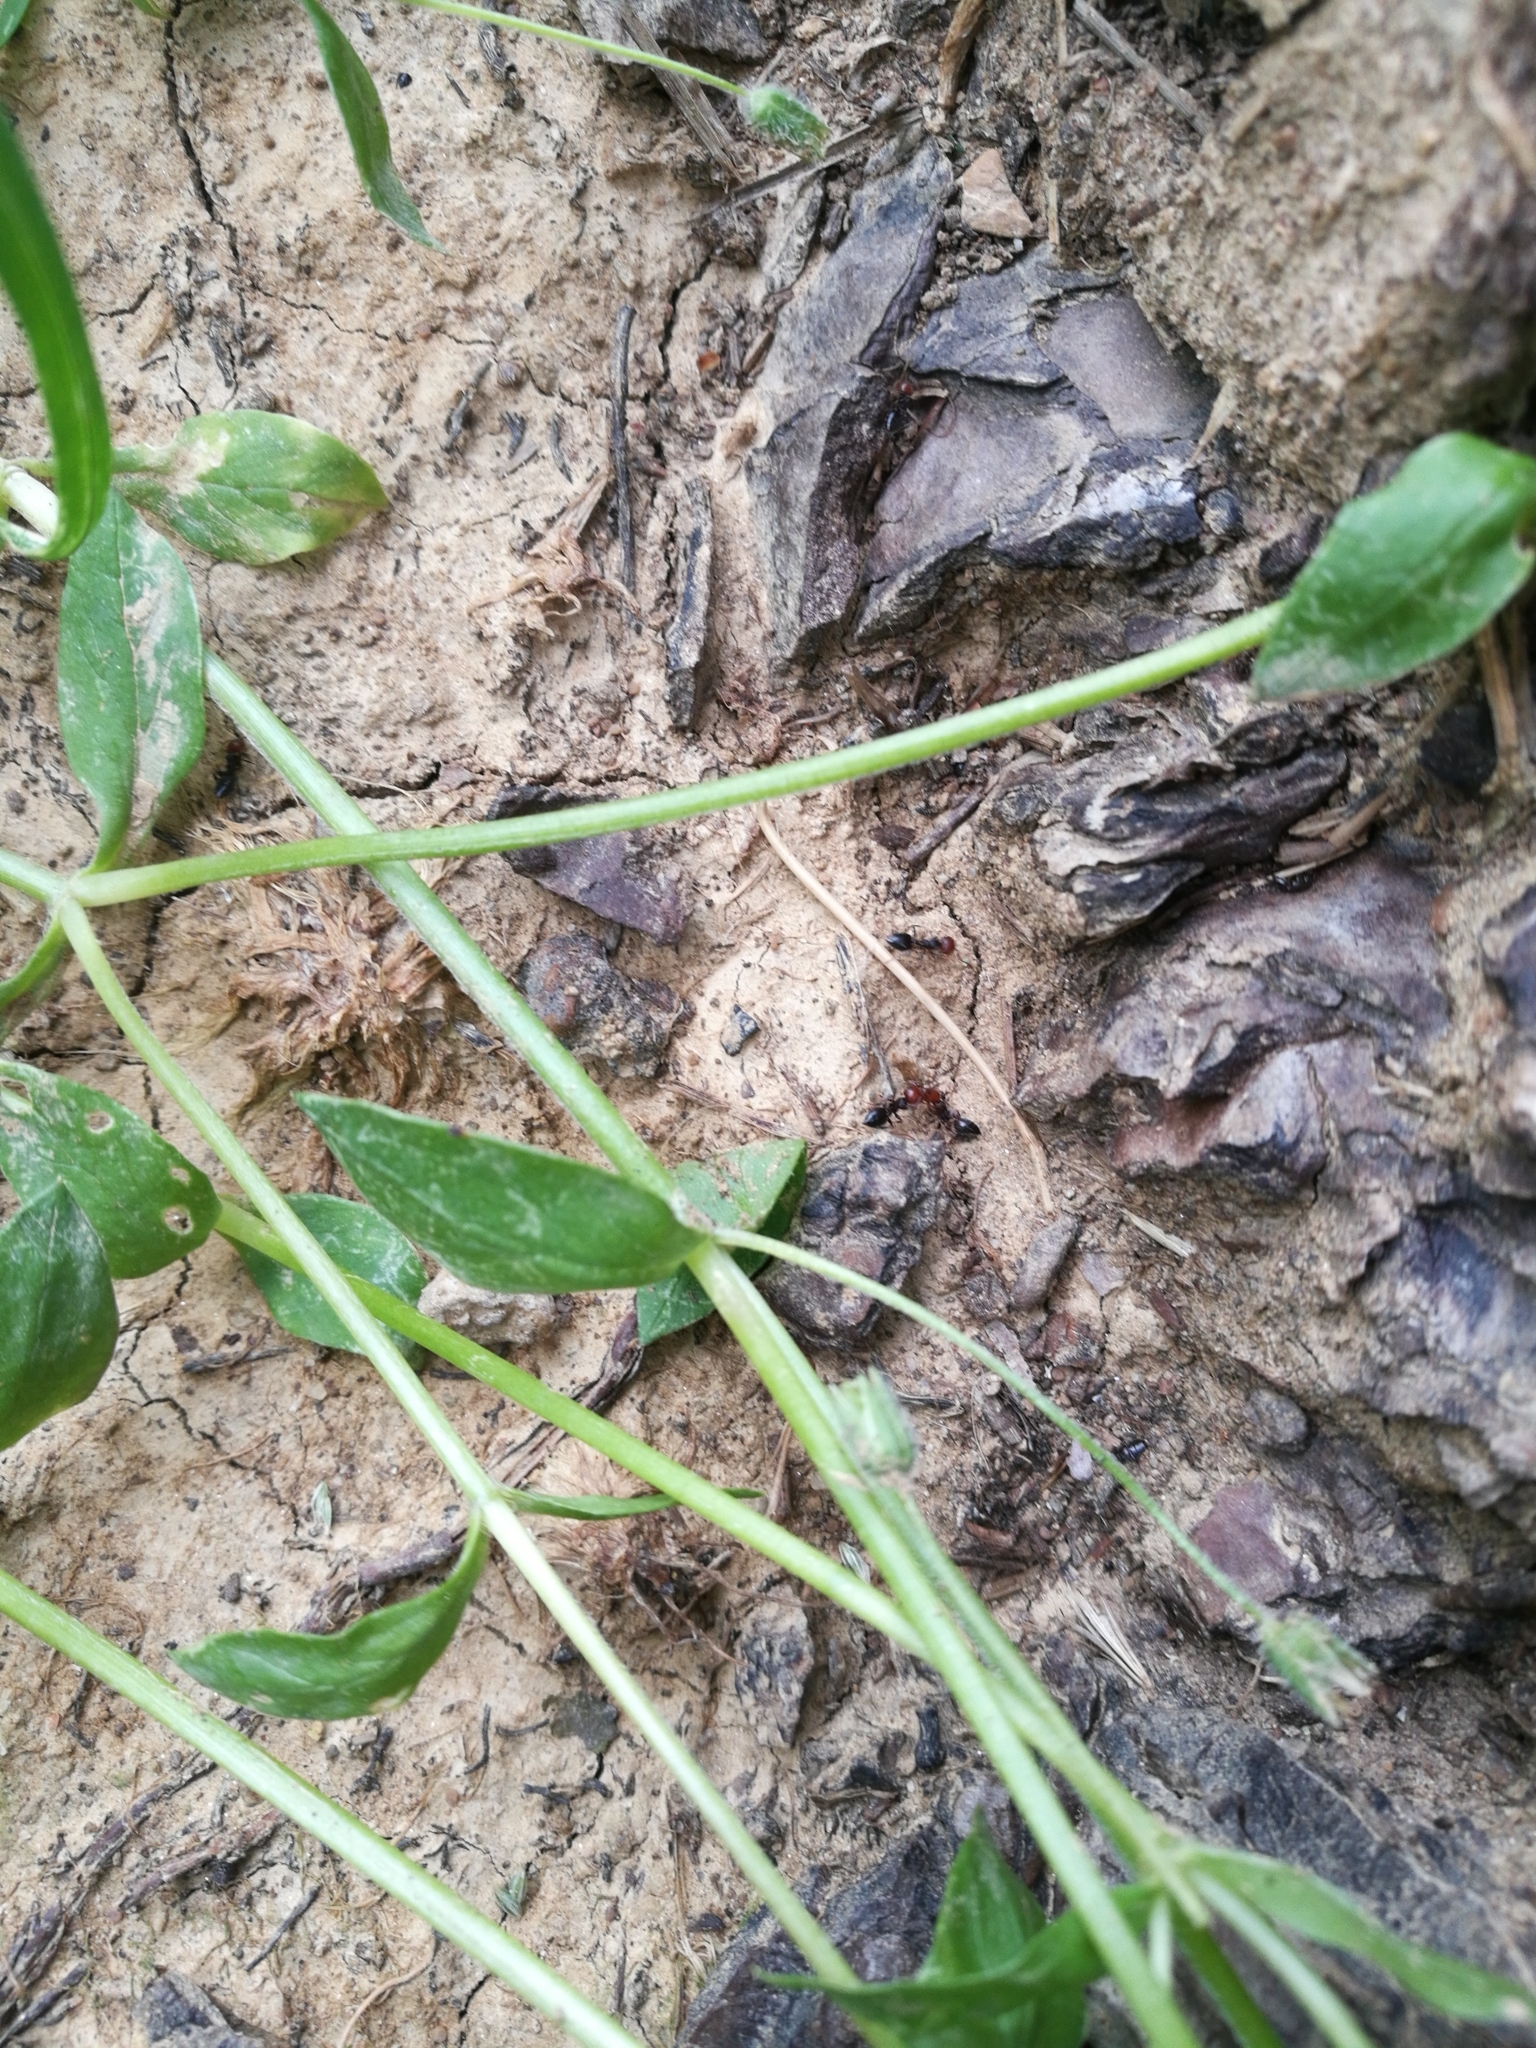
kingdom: Animalia
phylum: Arthropoda
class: Insecta
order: Hymenoptera
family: Formicidae
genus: Crematogaster
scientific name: Crematogaster scutellaris
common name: Fourmi du liège
